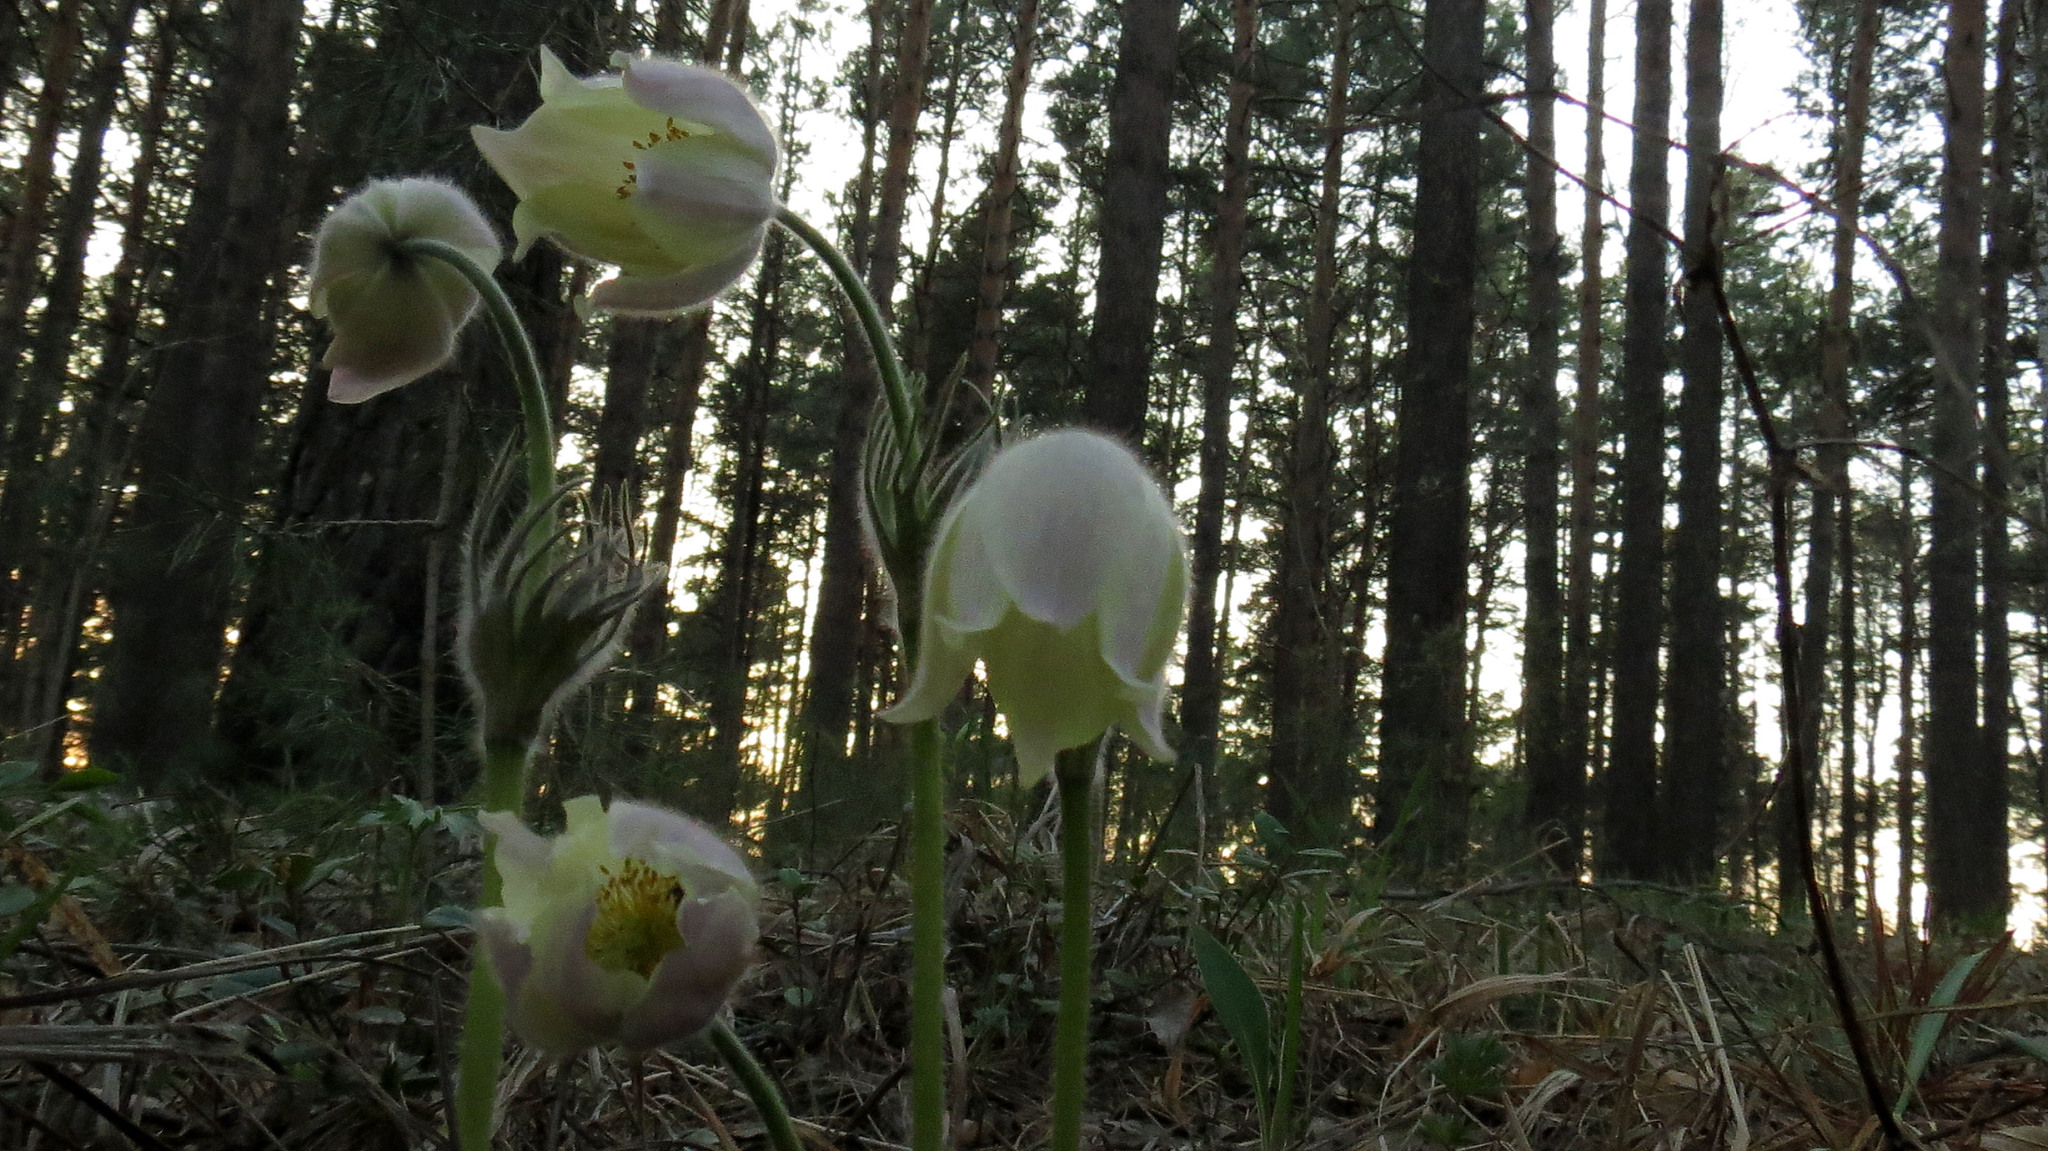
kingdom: Plantae
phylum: Tracheophyta
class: Magnoliopsida
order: Ranunculales
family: Ranunculaceae
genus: Pulsatilla
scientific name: Pulsatilla patens
